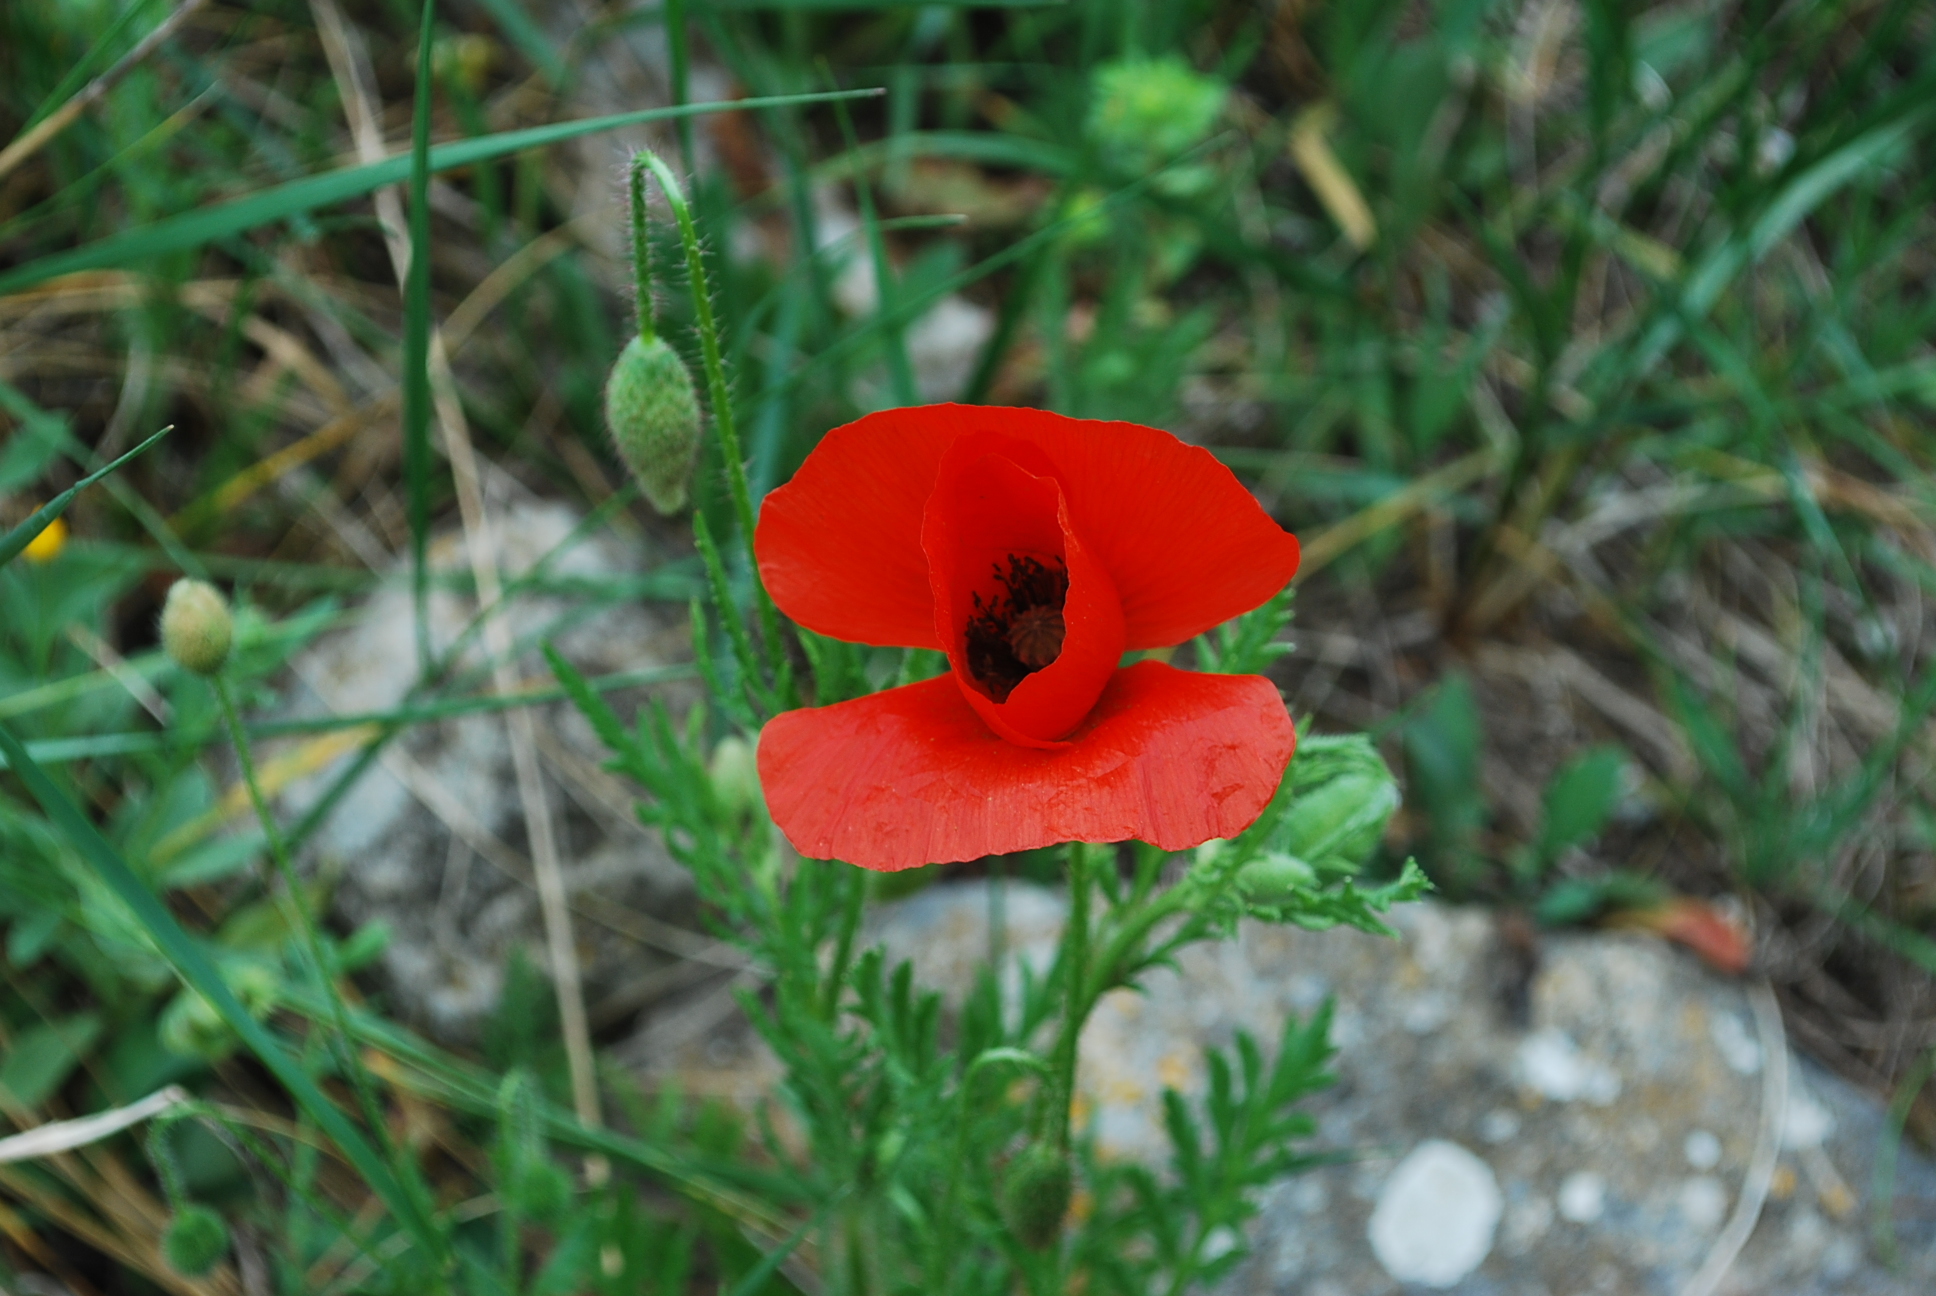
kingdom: Plantae
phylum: Tracheophyta
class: Magnoliopsida
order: Ranunculales
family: Papaveraceae
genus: Papaver
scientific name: Papaver rhoeas
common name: Corn poppy
